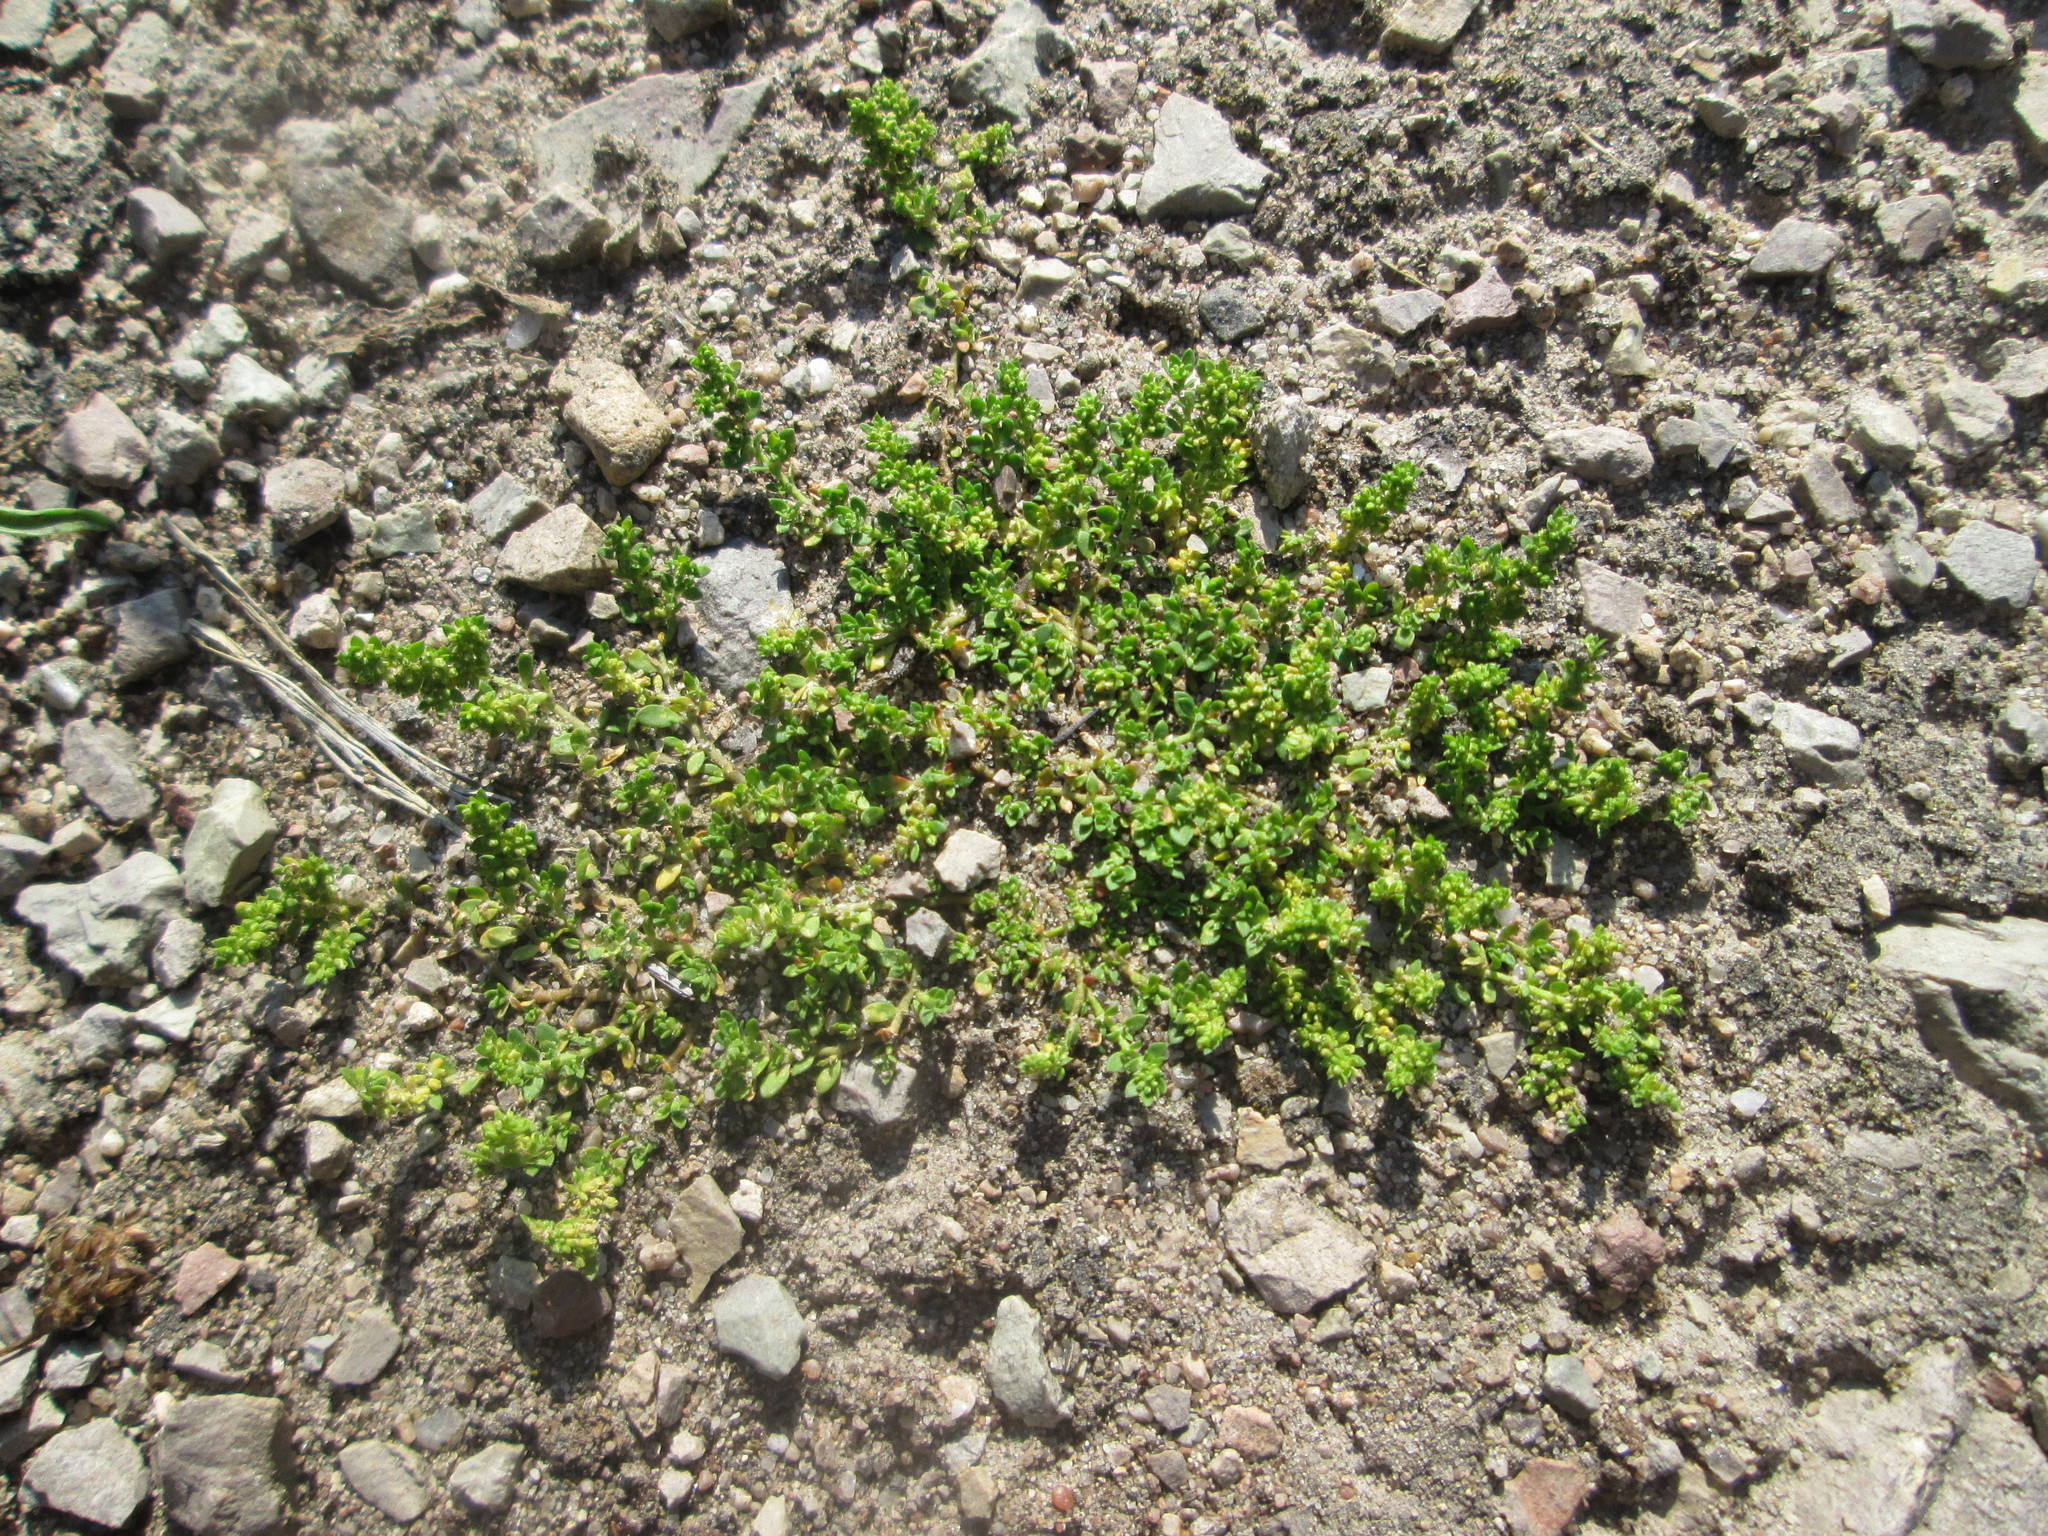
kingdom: Plantae
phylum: Tracheophyta
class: Magnoliopsida
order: Caryophyllales
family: Caryophyllaceae
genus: Herniaria
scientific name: Herniaria glabra
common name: Smooth rupturewort
